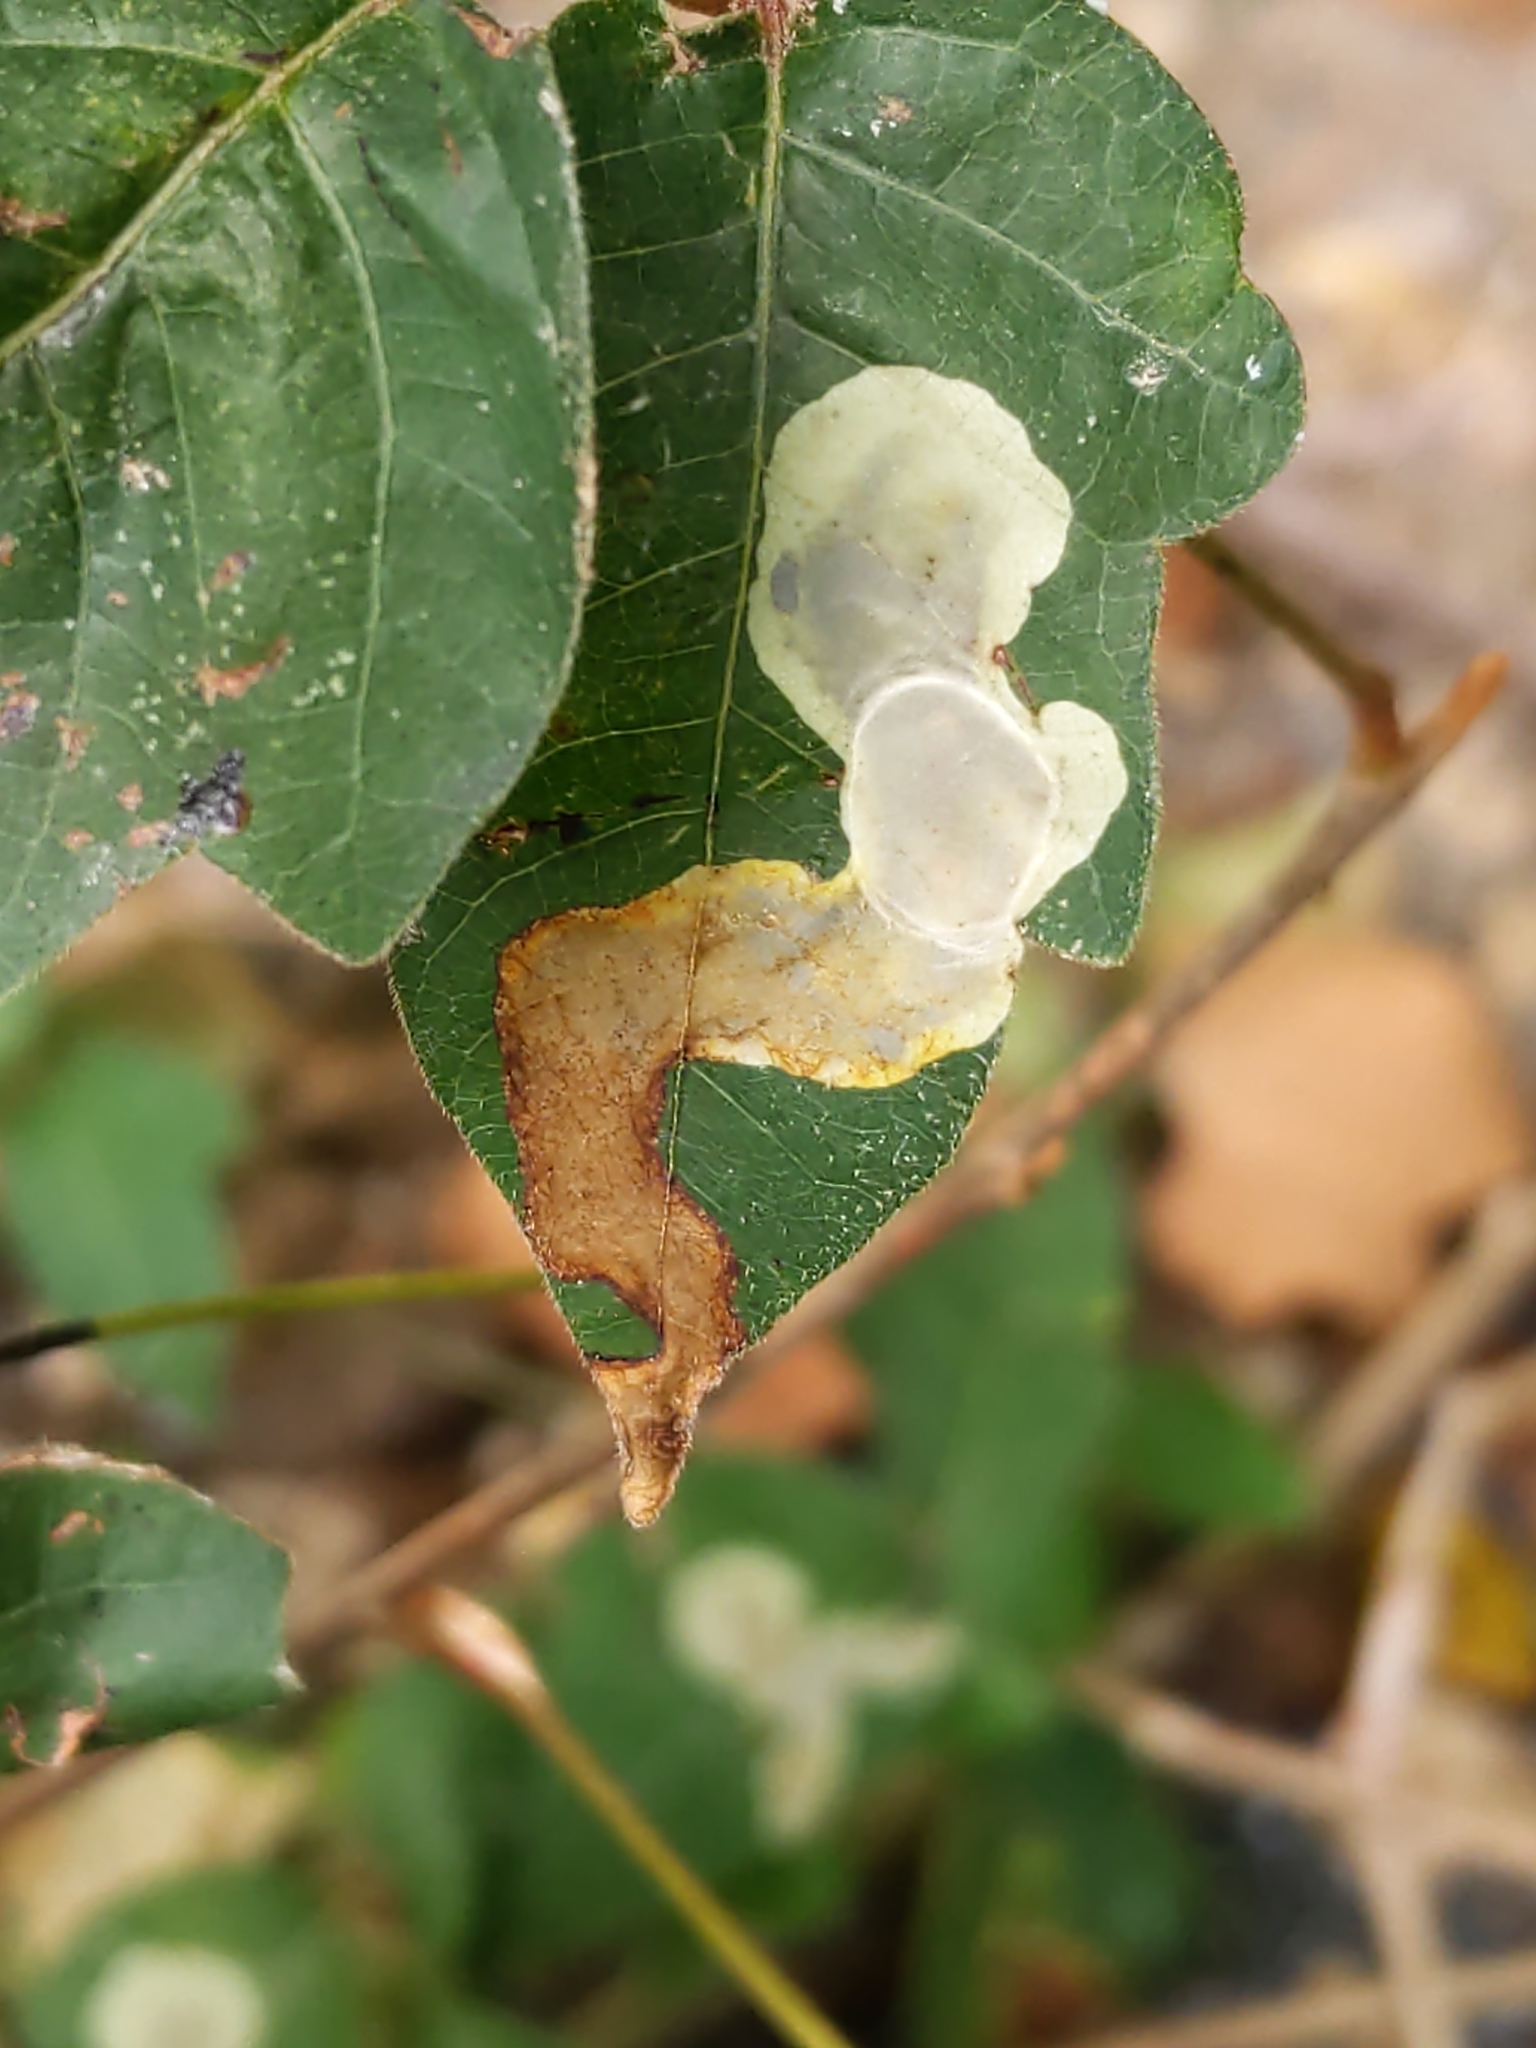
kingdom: Animalia
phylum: Arthropoda
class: Insecta
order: Lepidoptera
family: Gracillariidae
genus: Cameraria
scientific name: Cameraria guttifinitella
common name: Poison ivy leaf-miner moth
